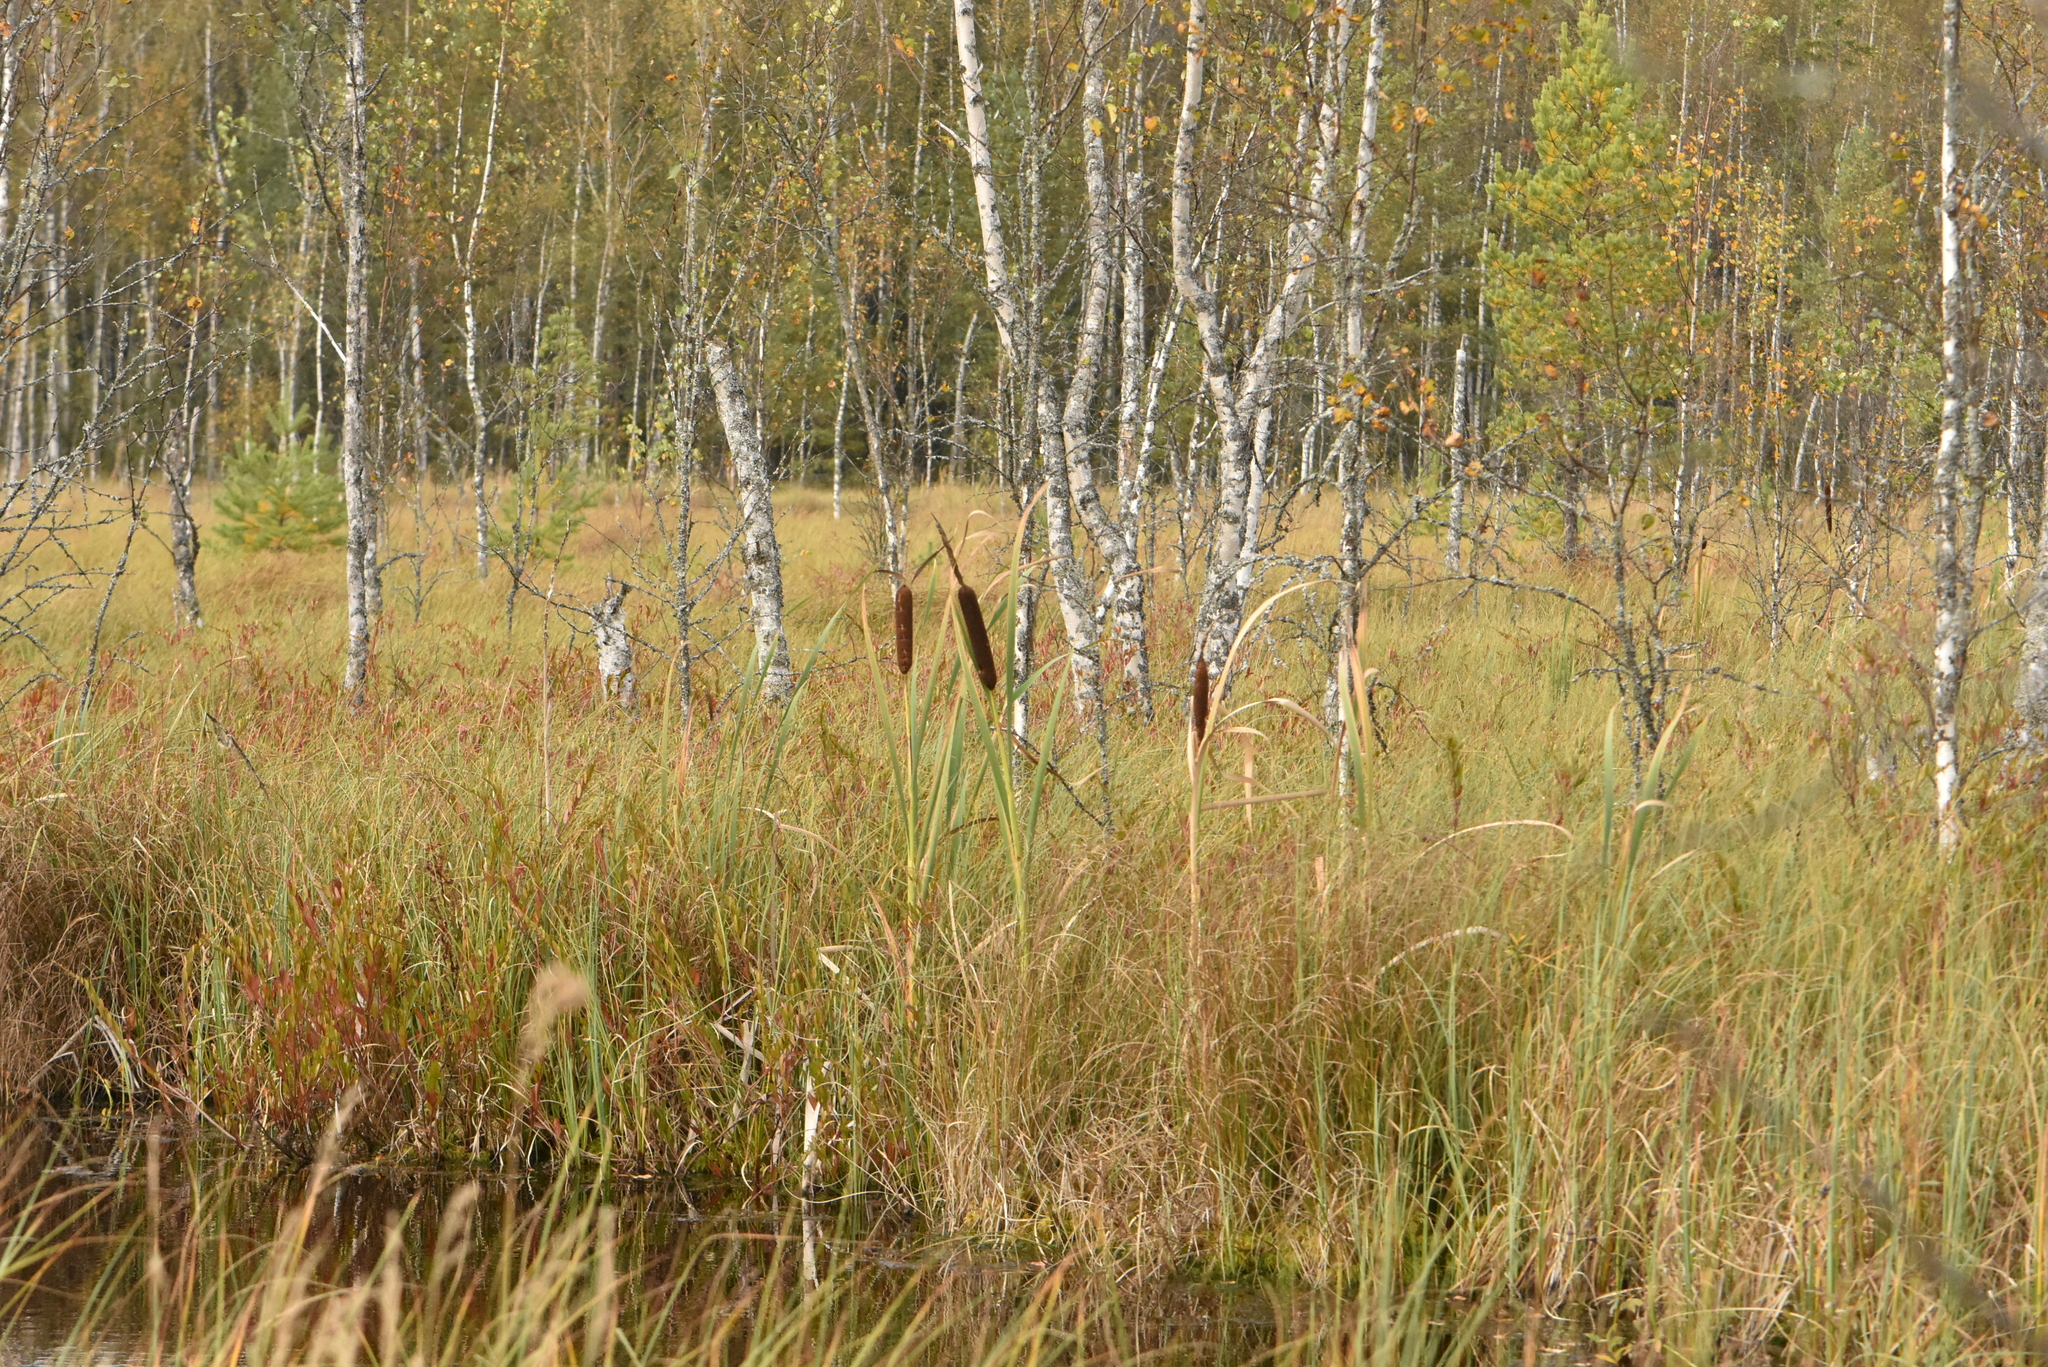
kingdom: Plantae
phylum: Tracheophyta
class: Liliopsida
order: Poales
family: Typhaceae
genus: Typha
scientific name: Typha latifolia
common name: Broadleaf cattail
